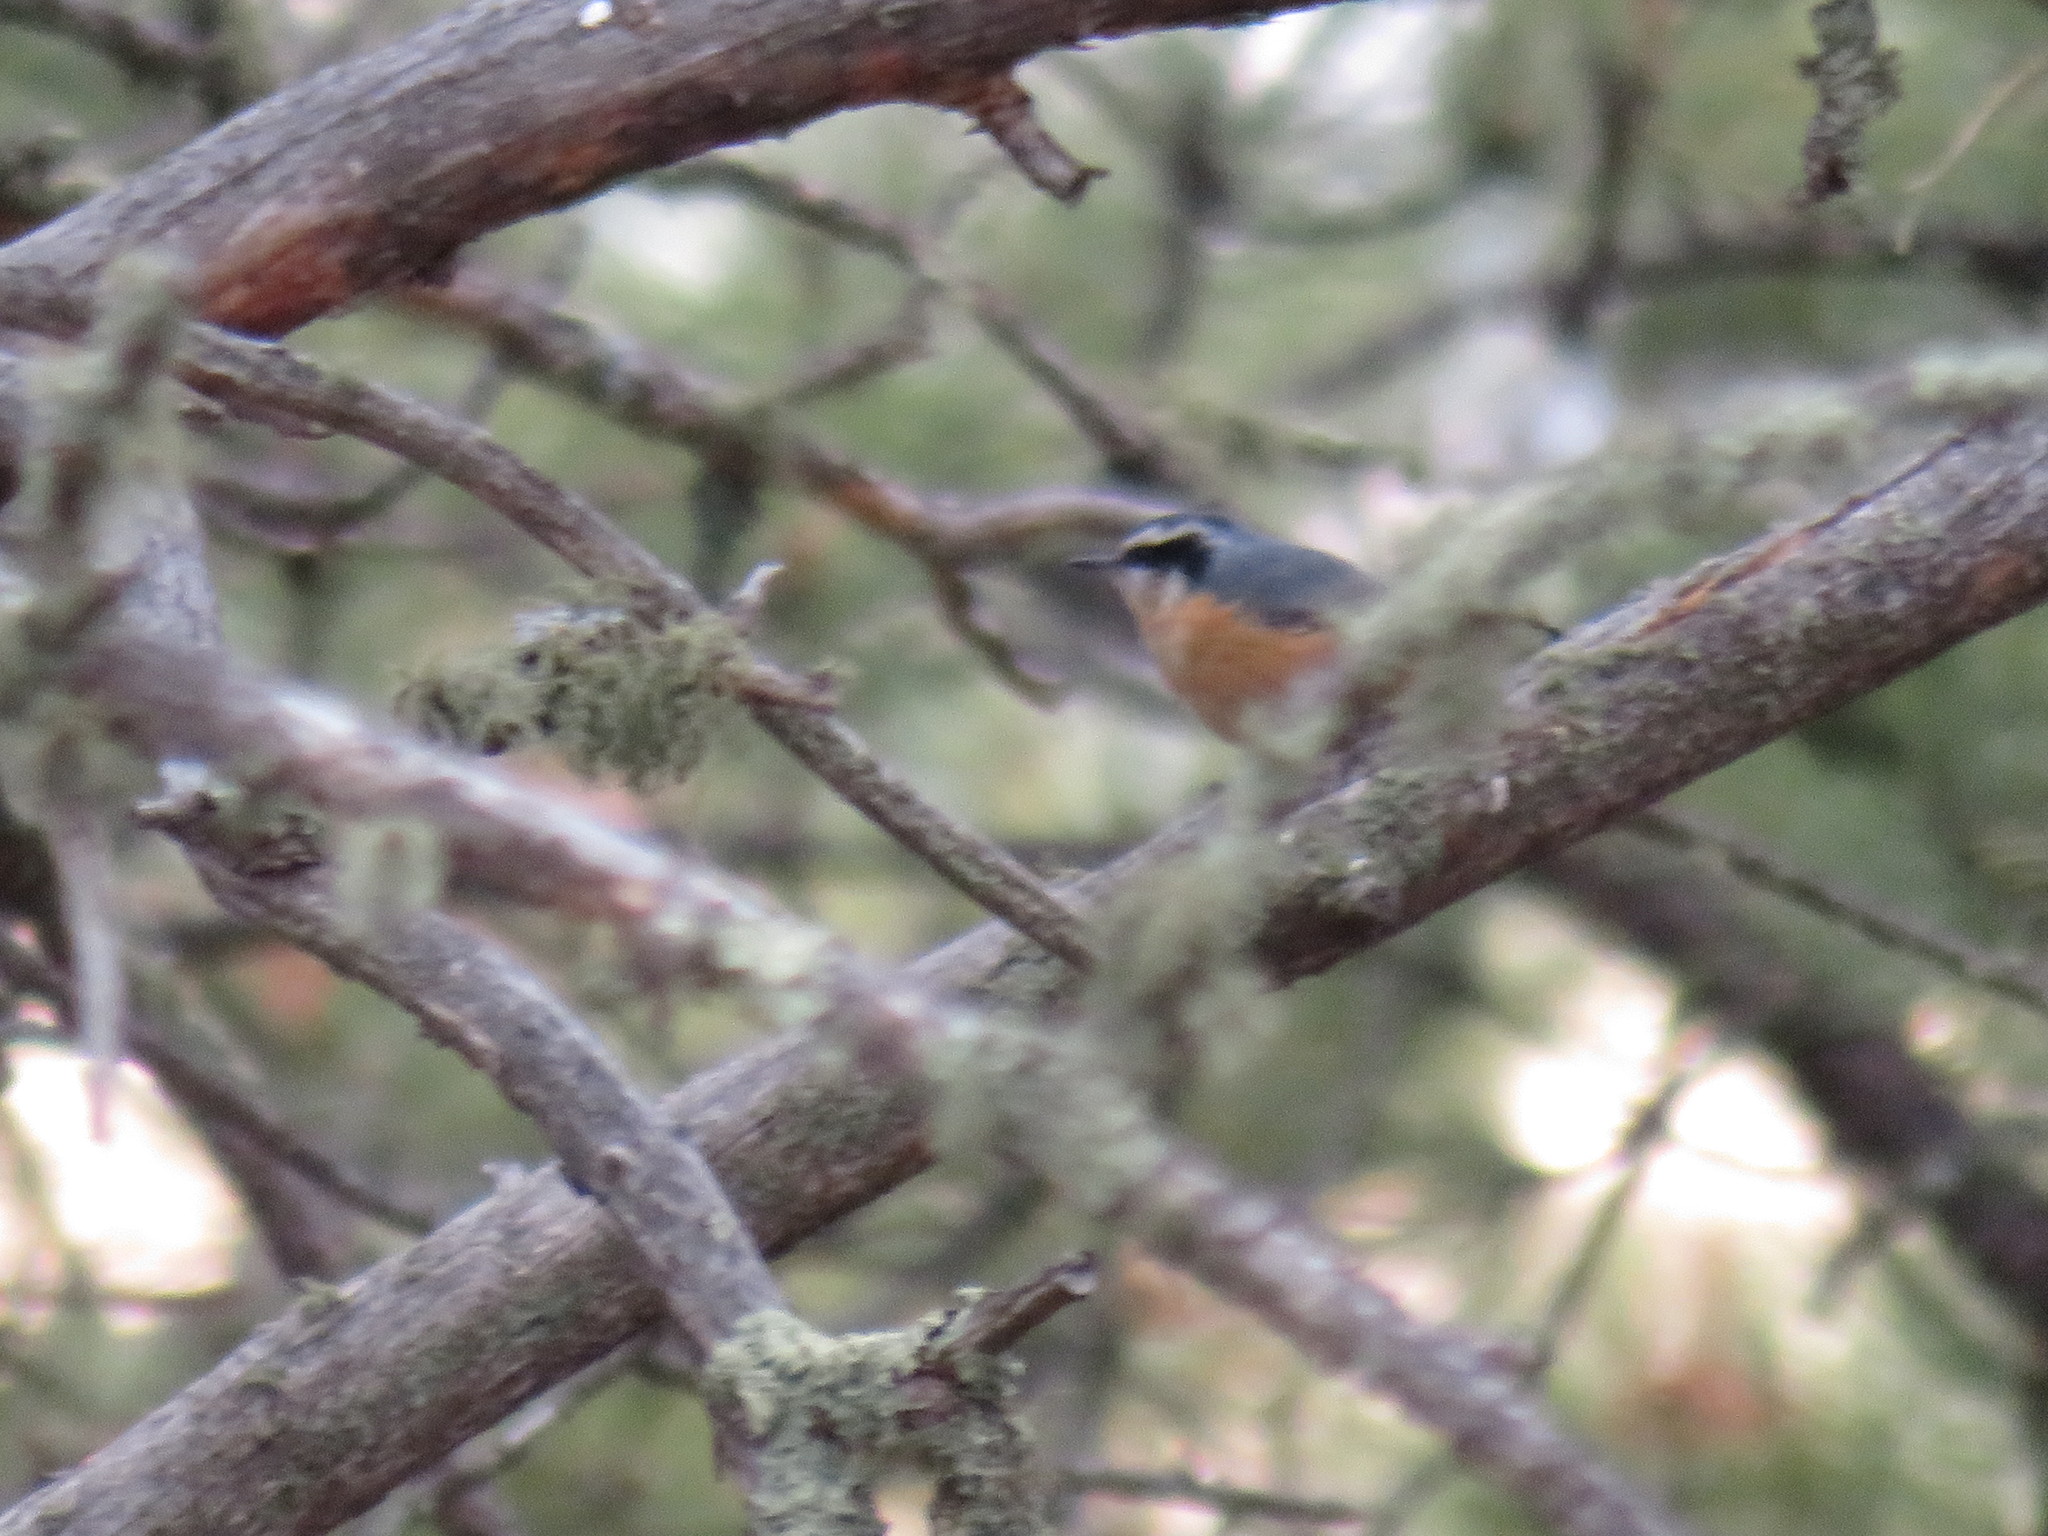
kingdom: Animalia
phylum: Chordata
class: Aves
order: Passeriformes
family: Sittidae
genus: Sitta
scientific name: Sitta canadensis
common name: Red-breasted nuthatch
